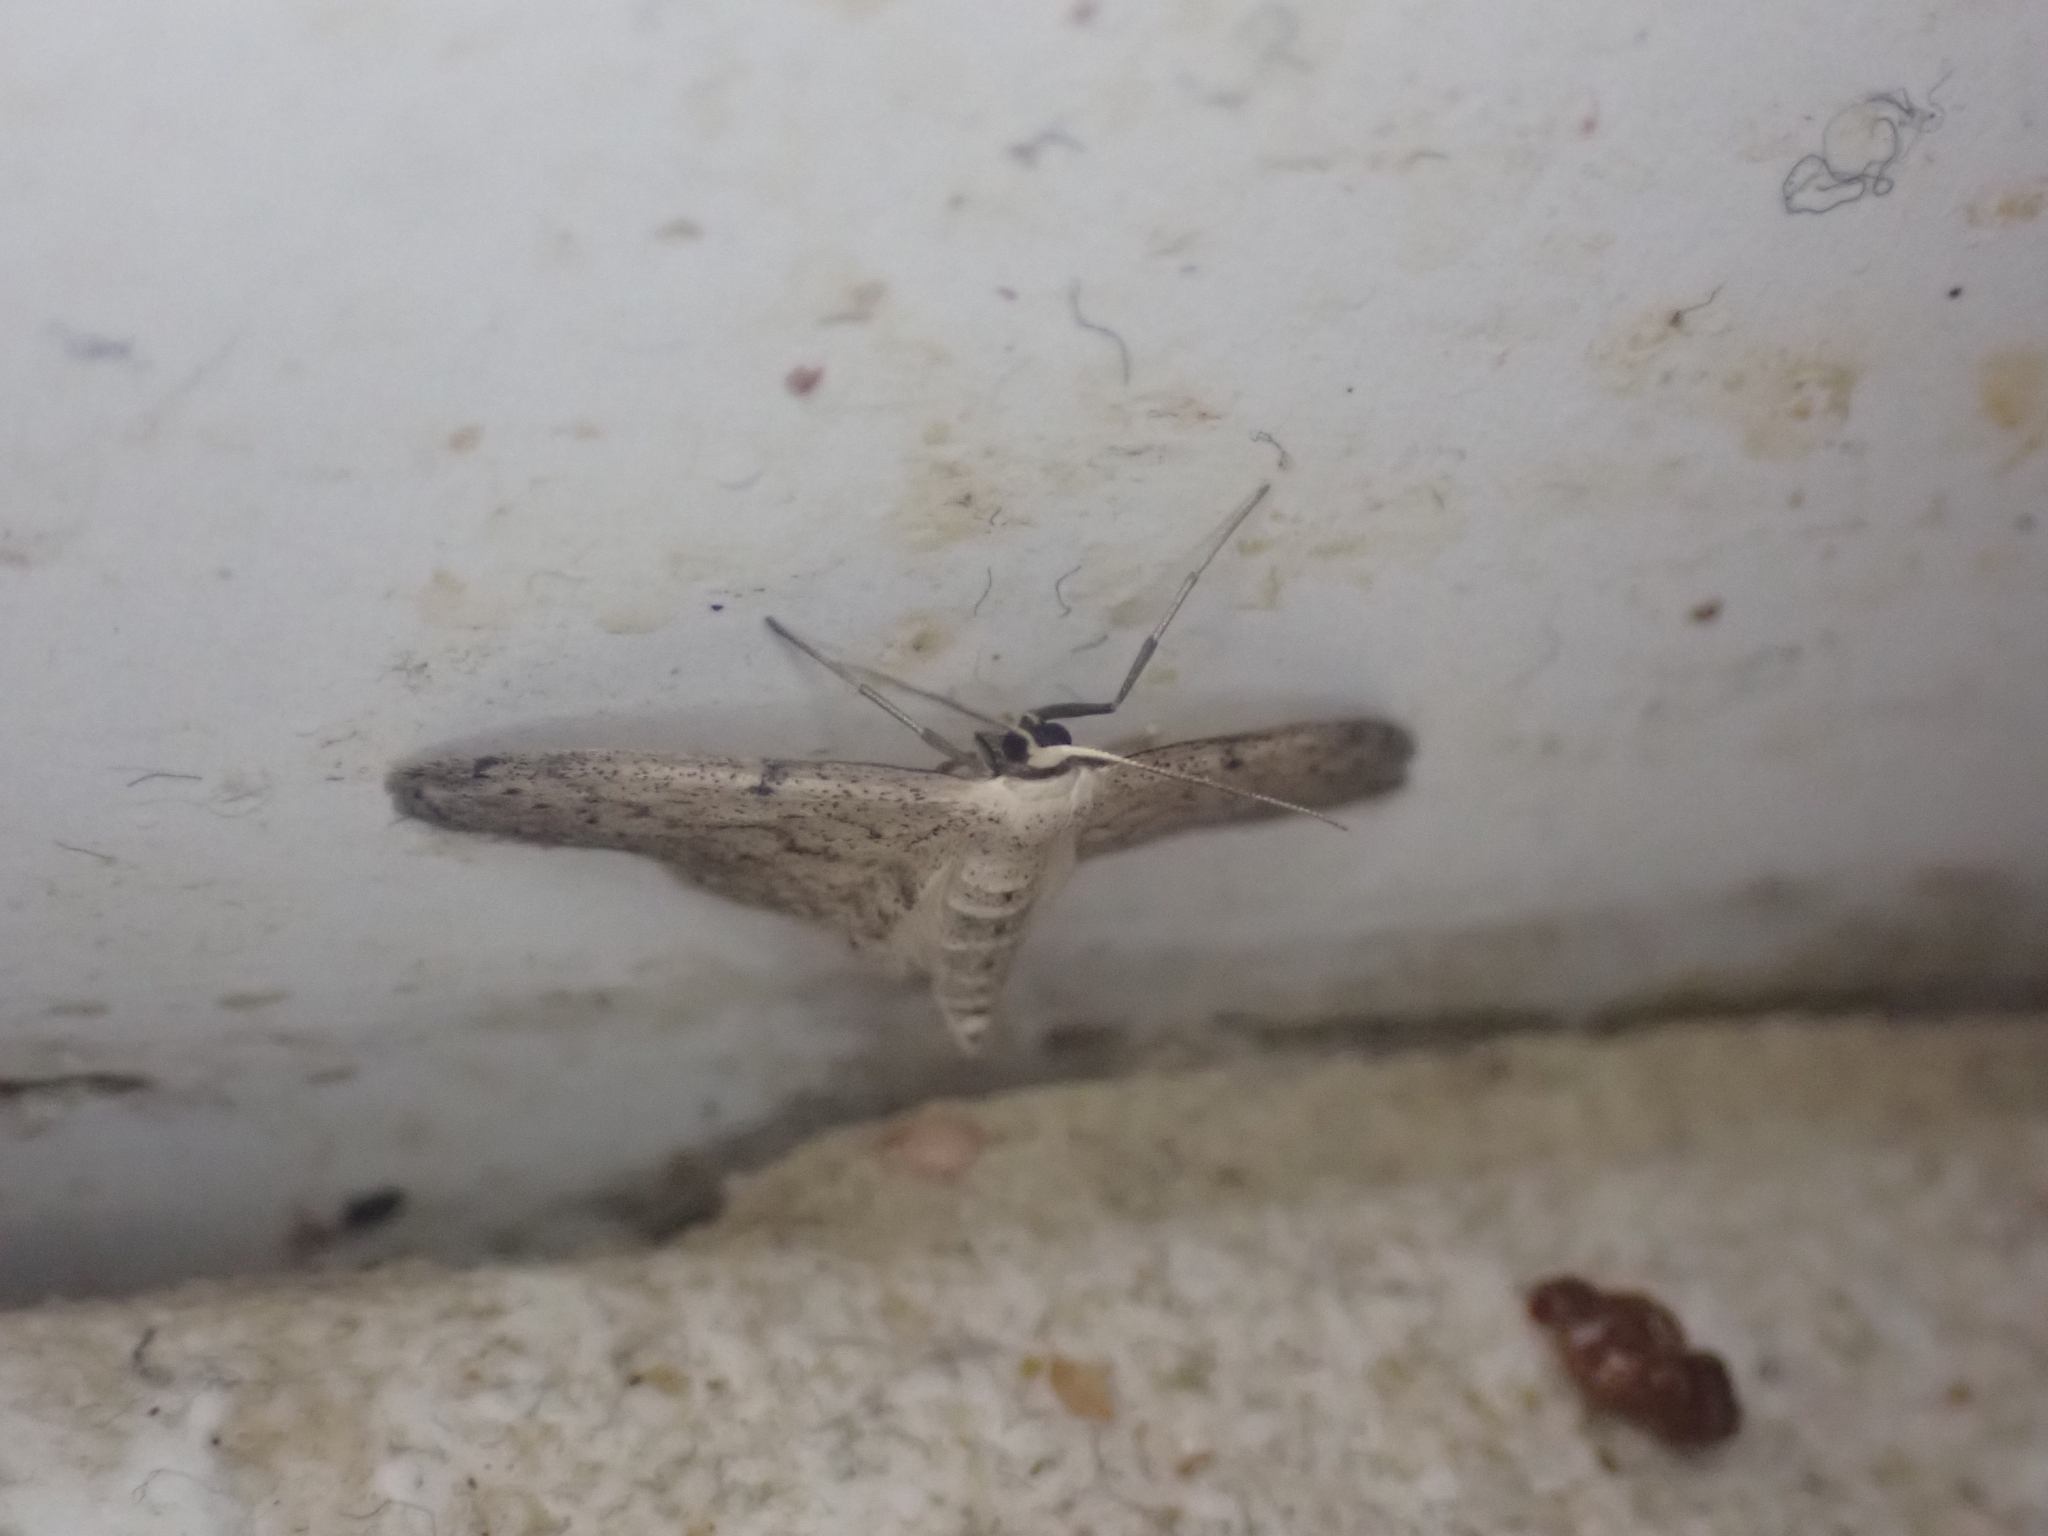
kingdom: Animalia
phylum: Arthropoda
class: Insecta
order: Lepidoptera
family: Geometridae
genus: Idaea
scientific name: Idaea seriata
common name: Small dusty wave
